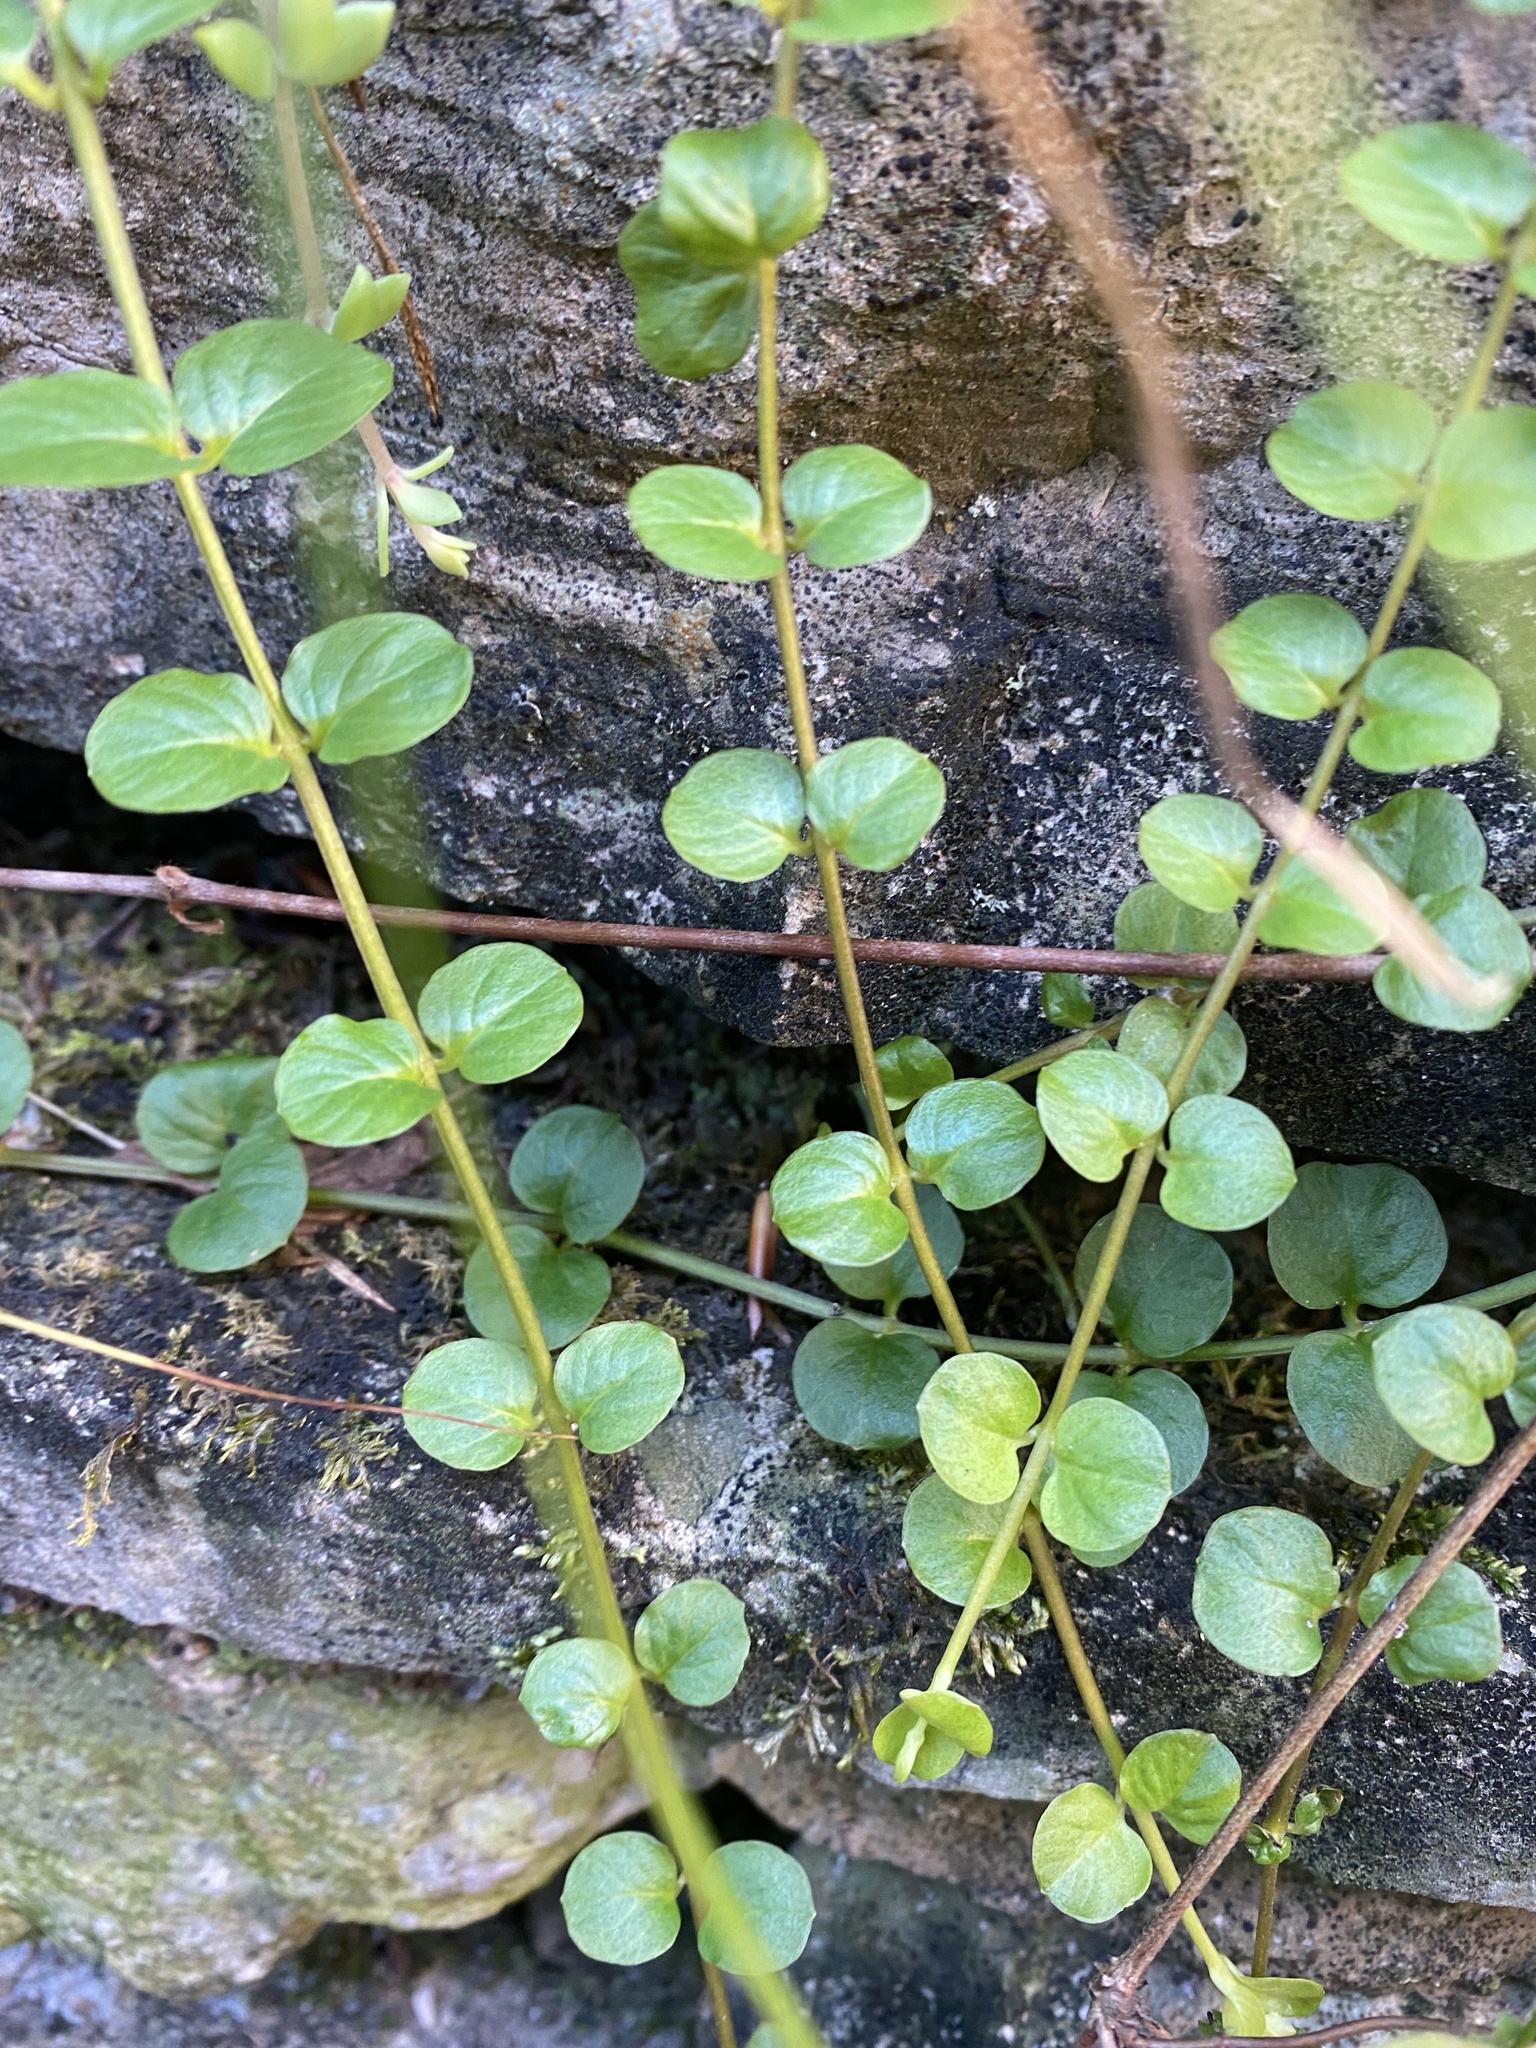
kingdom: Plantae
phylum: Tracheophyta
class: Magnoliopsida
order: Ericales
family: Primulaceae
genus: Lysimachia
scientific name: Lysimachia nummularia
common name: Moneywort
